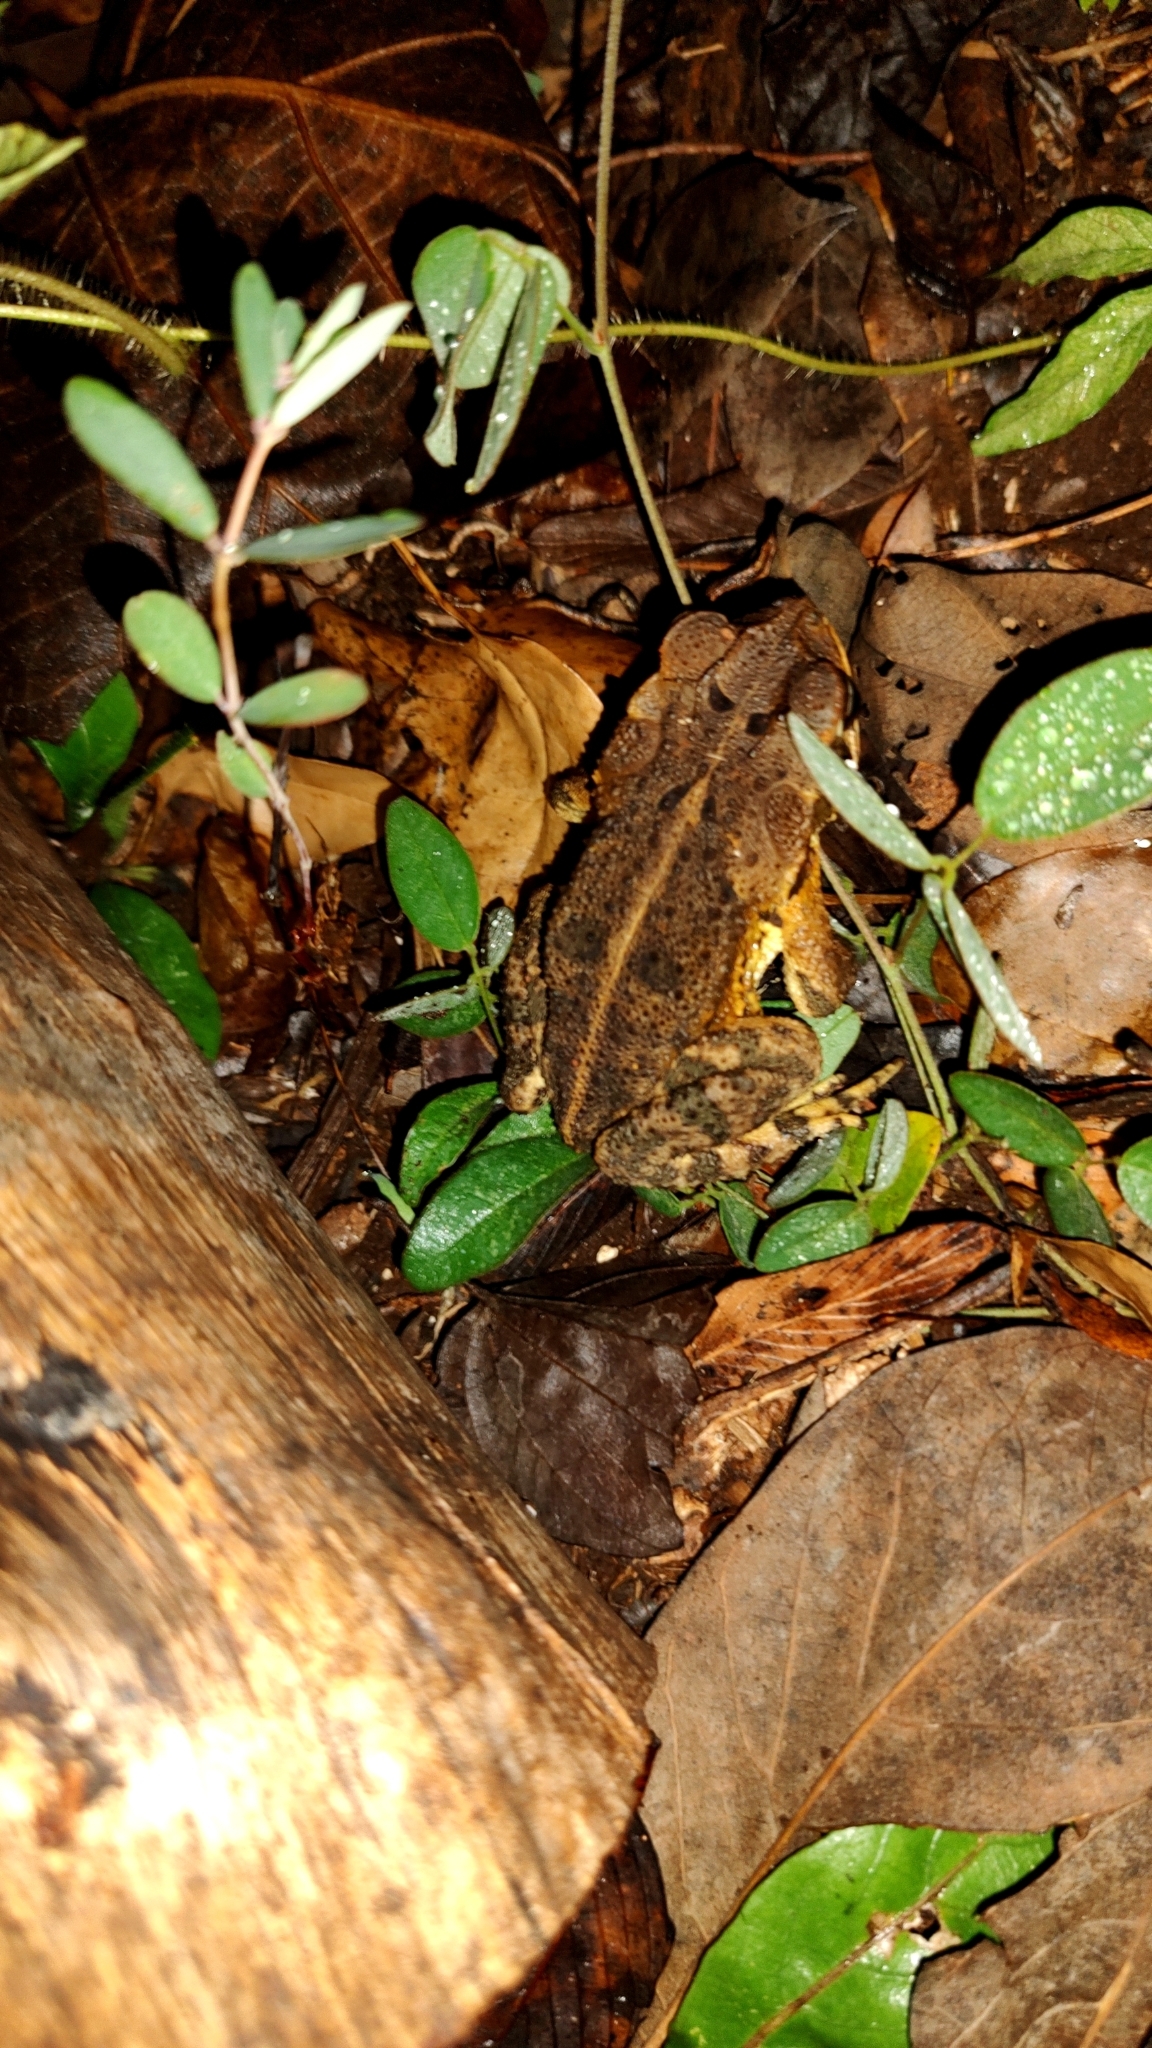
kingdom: Animalia
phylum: Chordata
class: Amphibia
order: Anura
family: Bufonidae
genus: Incilius
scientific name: Incilius valliceps
